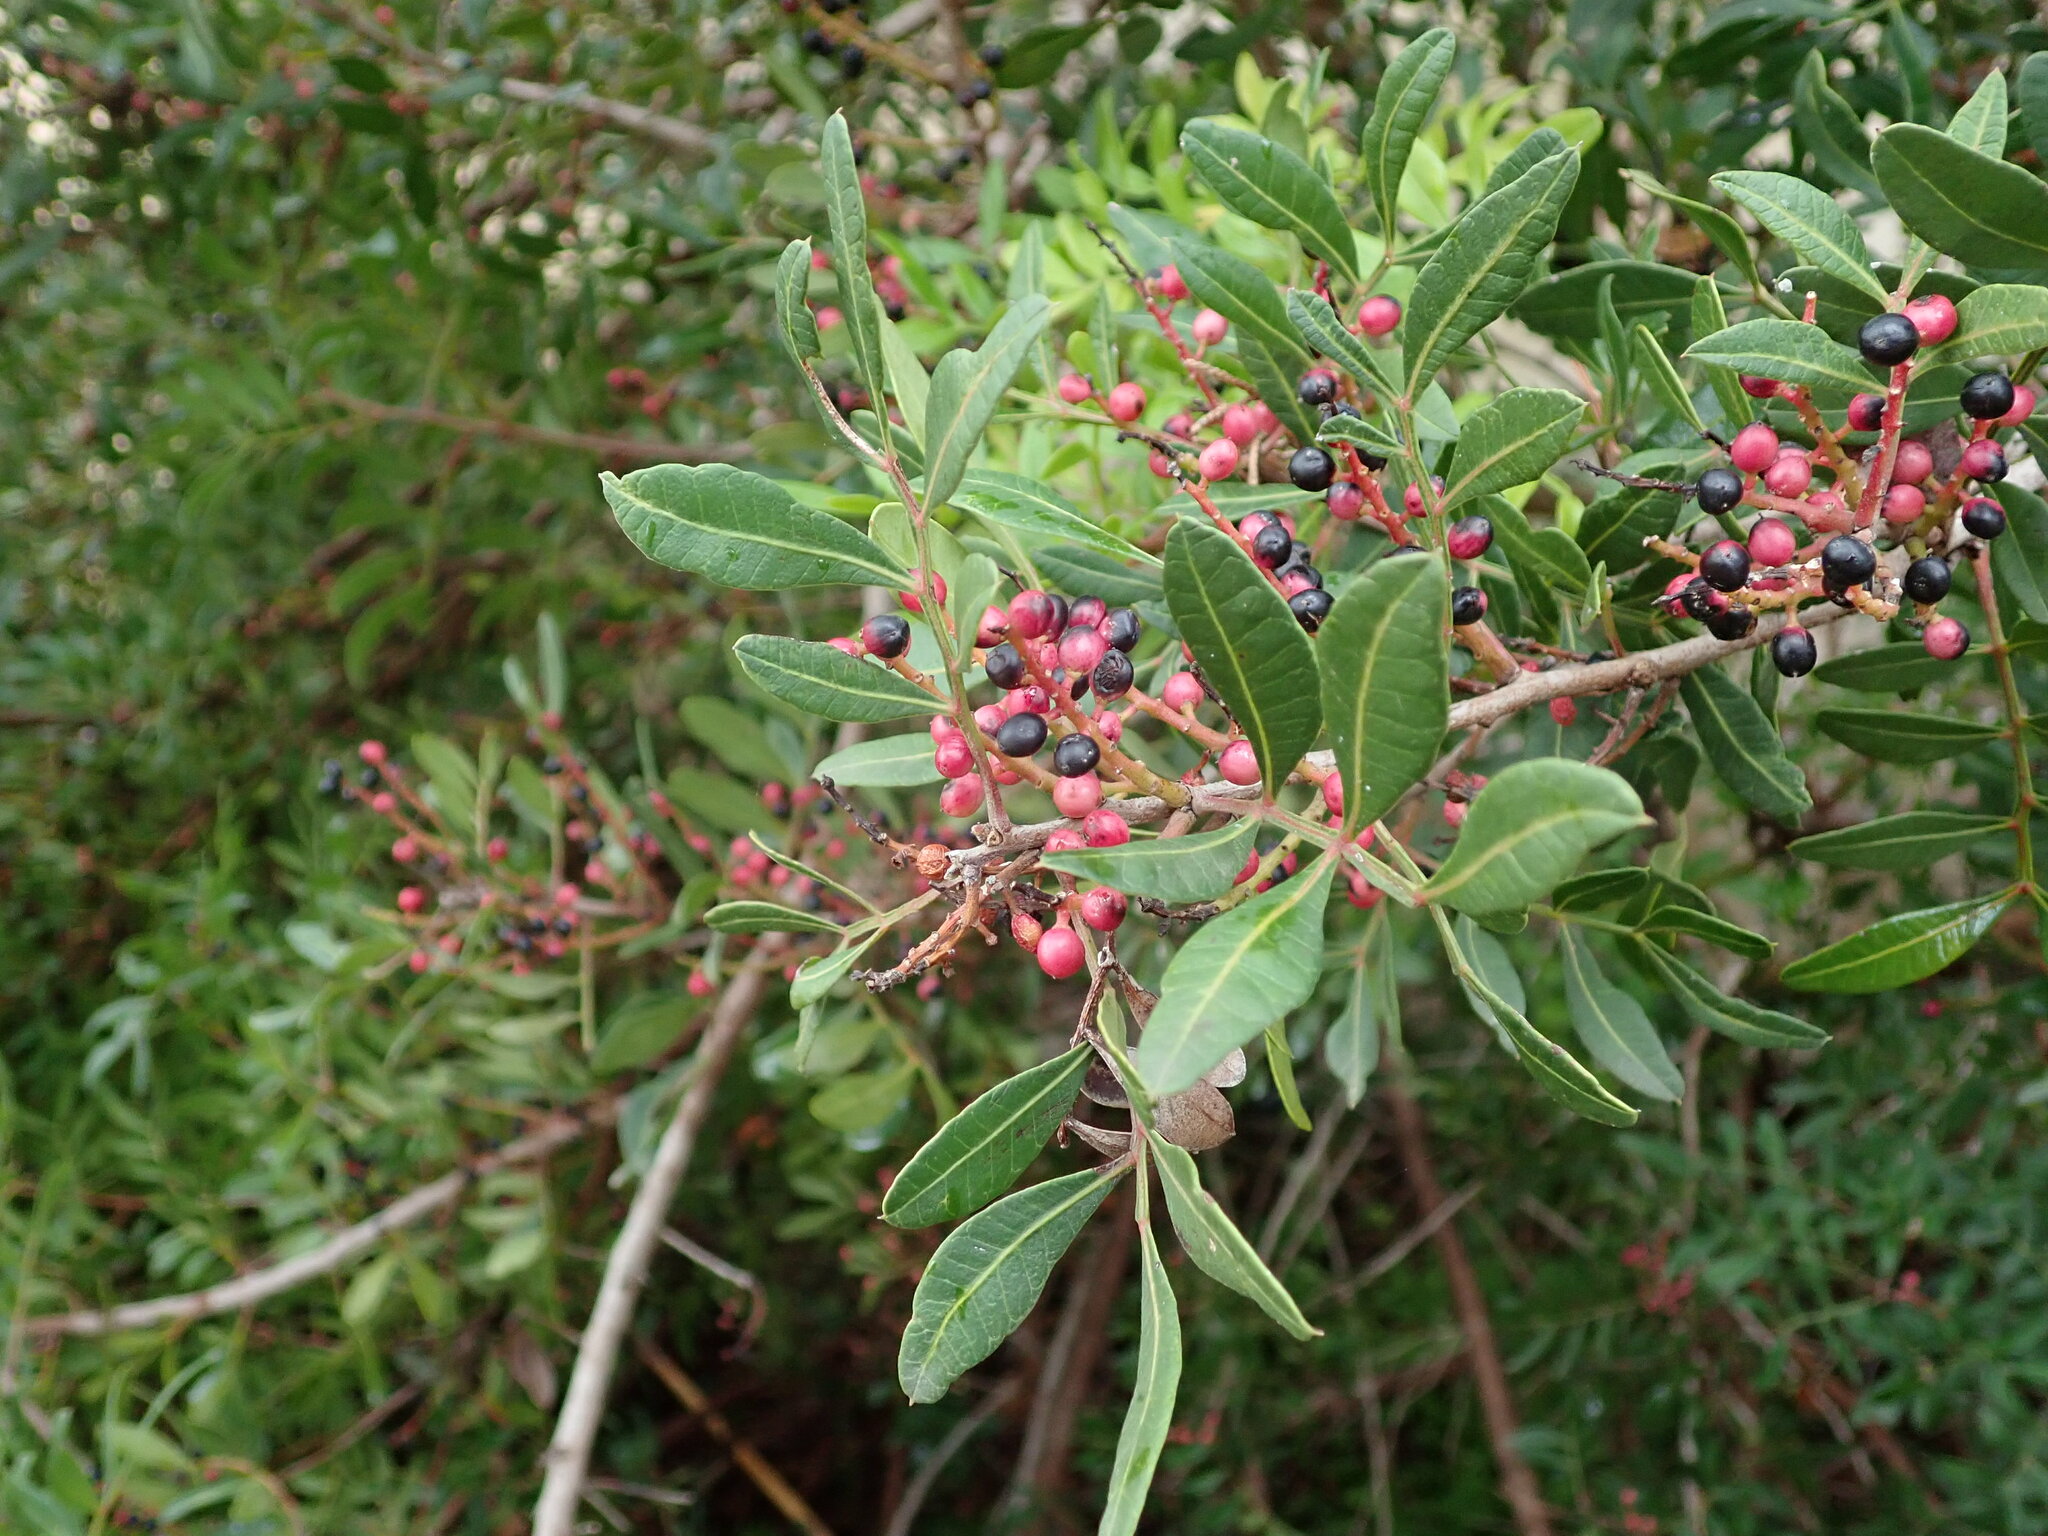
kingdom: Plantae
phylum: Tracheophyta
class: Magnoliopsida
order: Sapindales
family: Anacardiaceae
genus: Pistacia
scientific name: Pistacia lentiscus
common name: Lentisk
